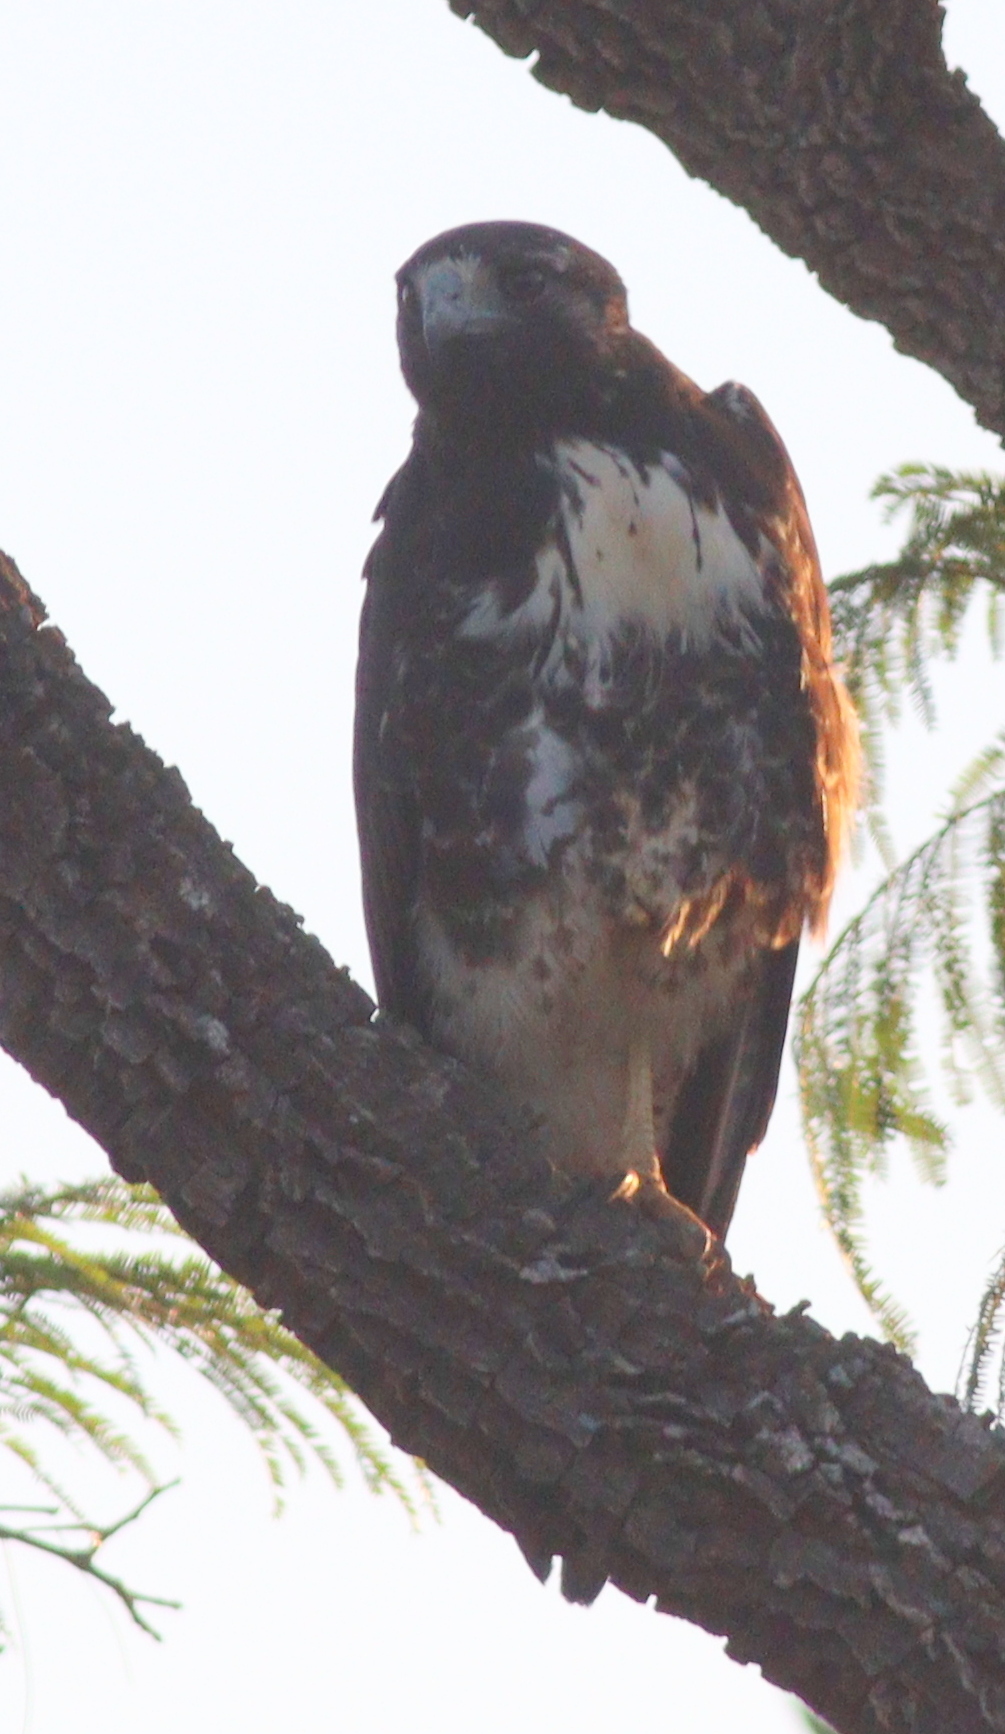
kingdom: Animalia
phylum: Chordata
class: Aves
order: Accipitriformes
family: Accipitridae
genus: Buteo
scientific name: Buteo albicaudatus
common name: White-tailed hawk
